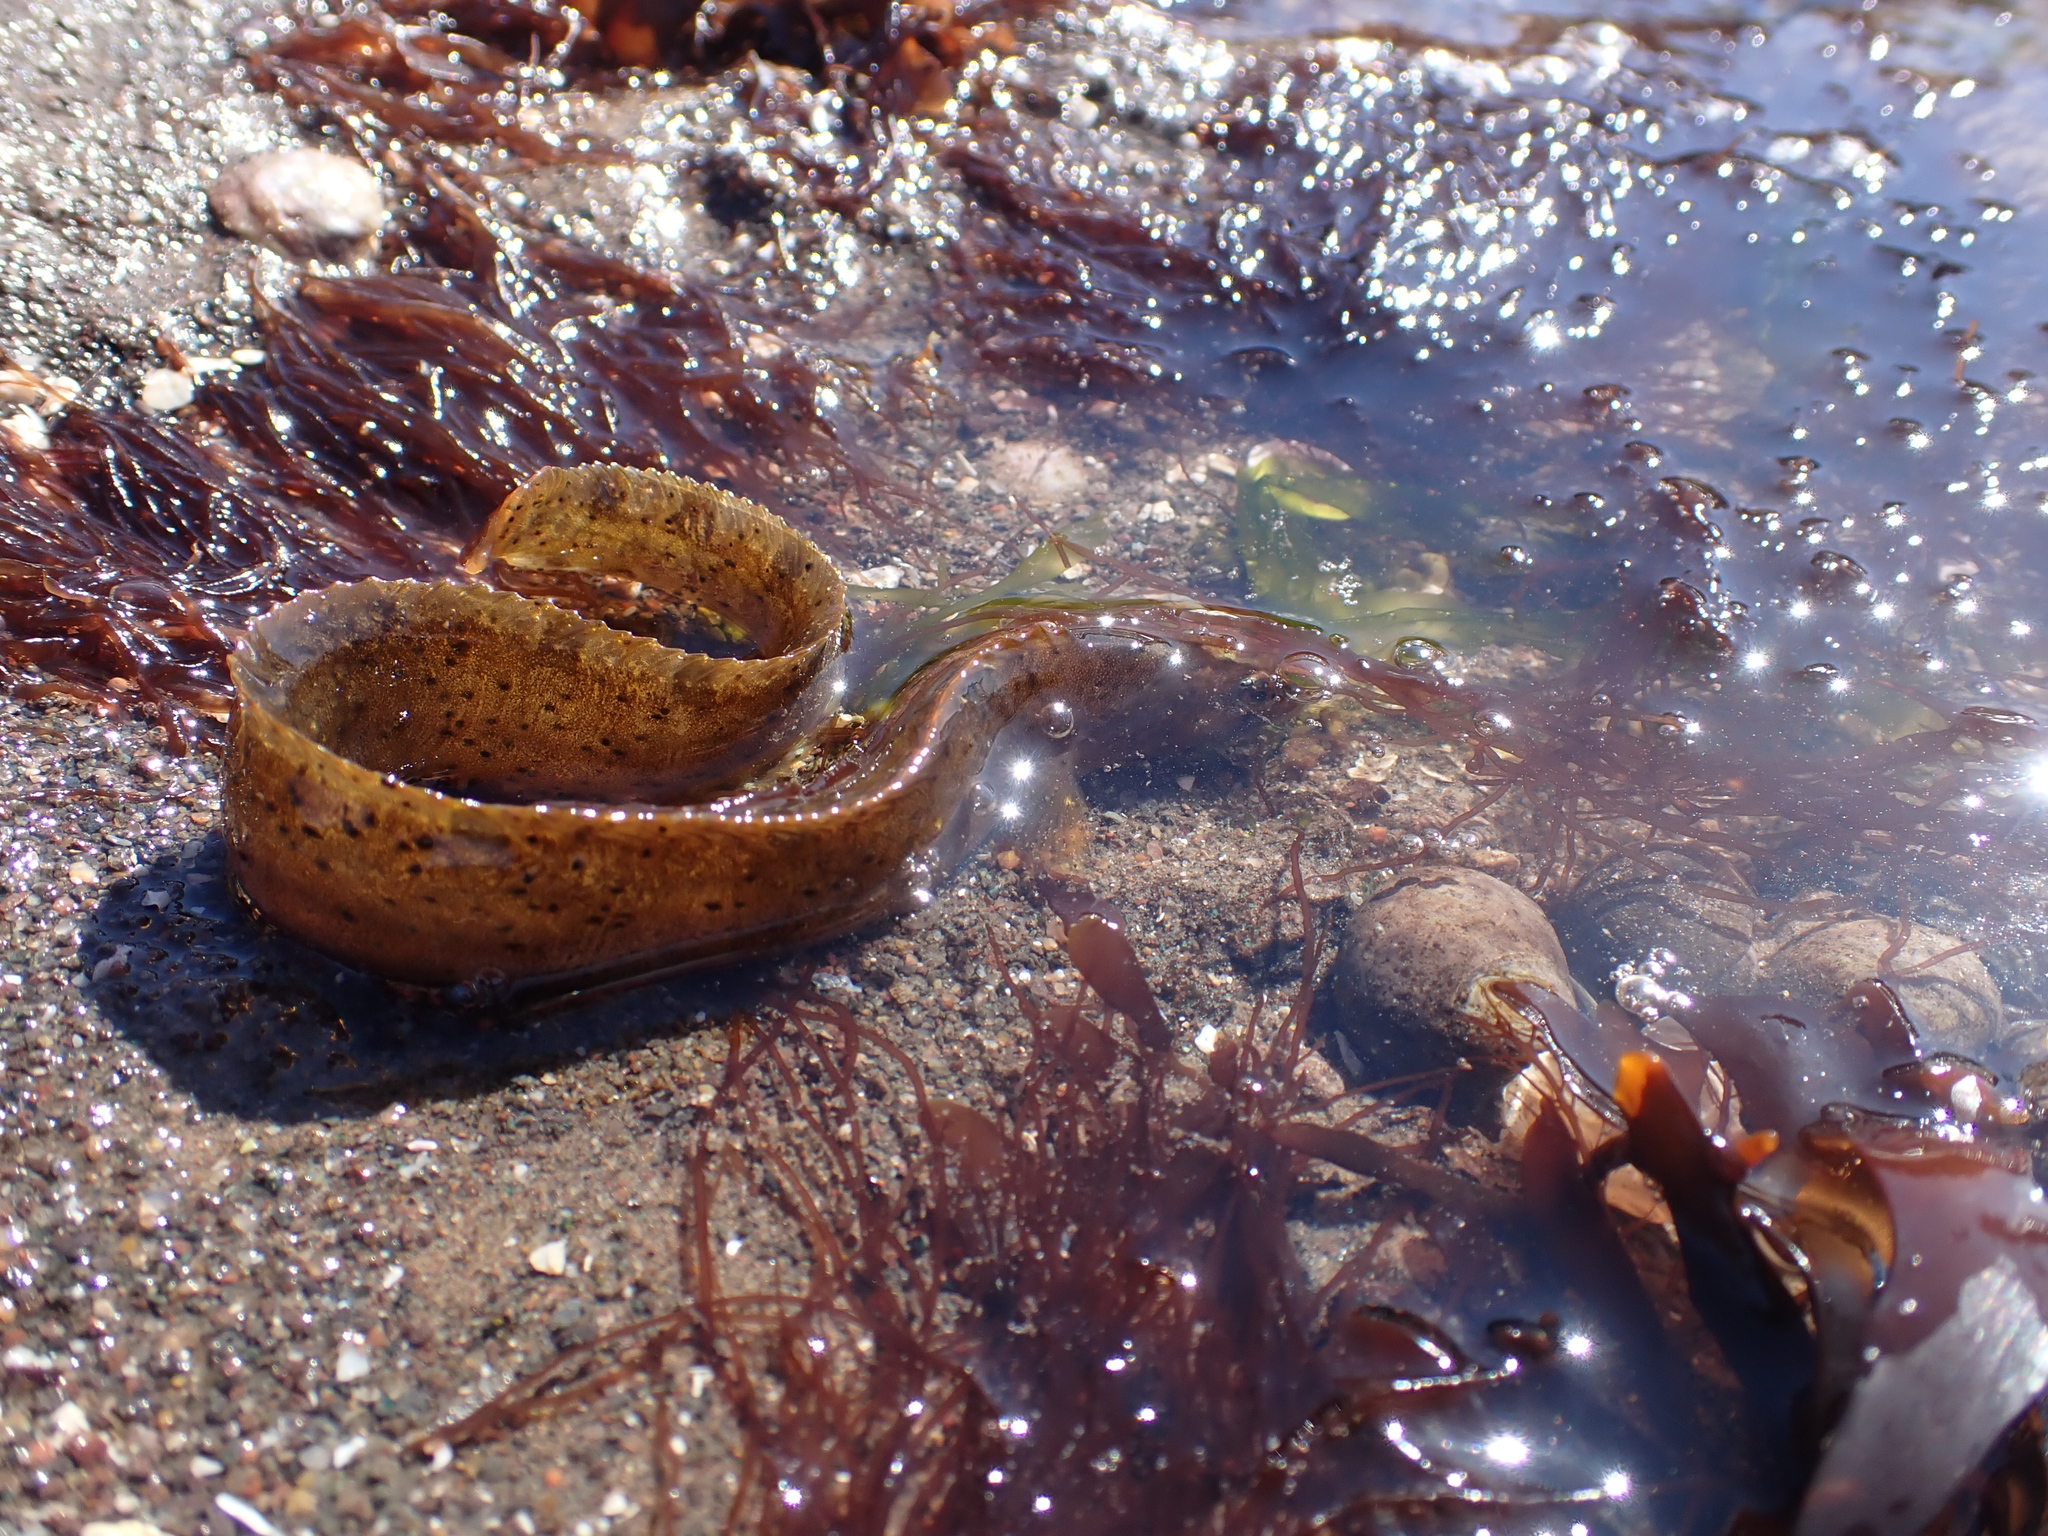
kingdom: Animalia
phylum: Chordata
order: Perciformes
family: Pholidae
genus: Pholis
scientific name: Pholis gunnellus
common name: Butterfish
